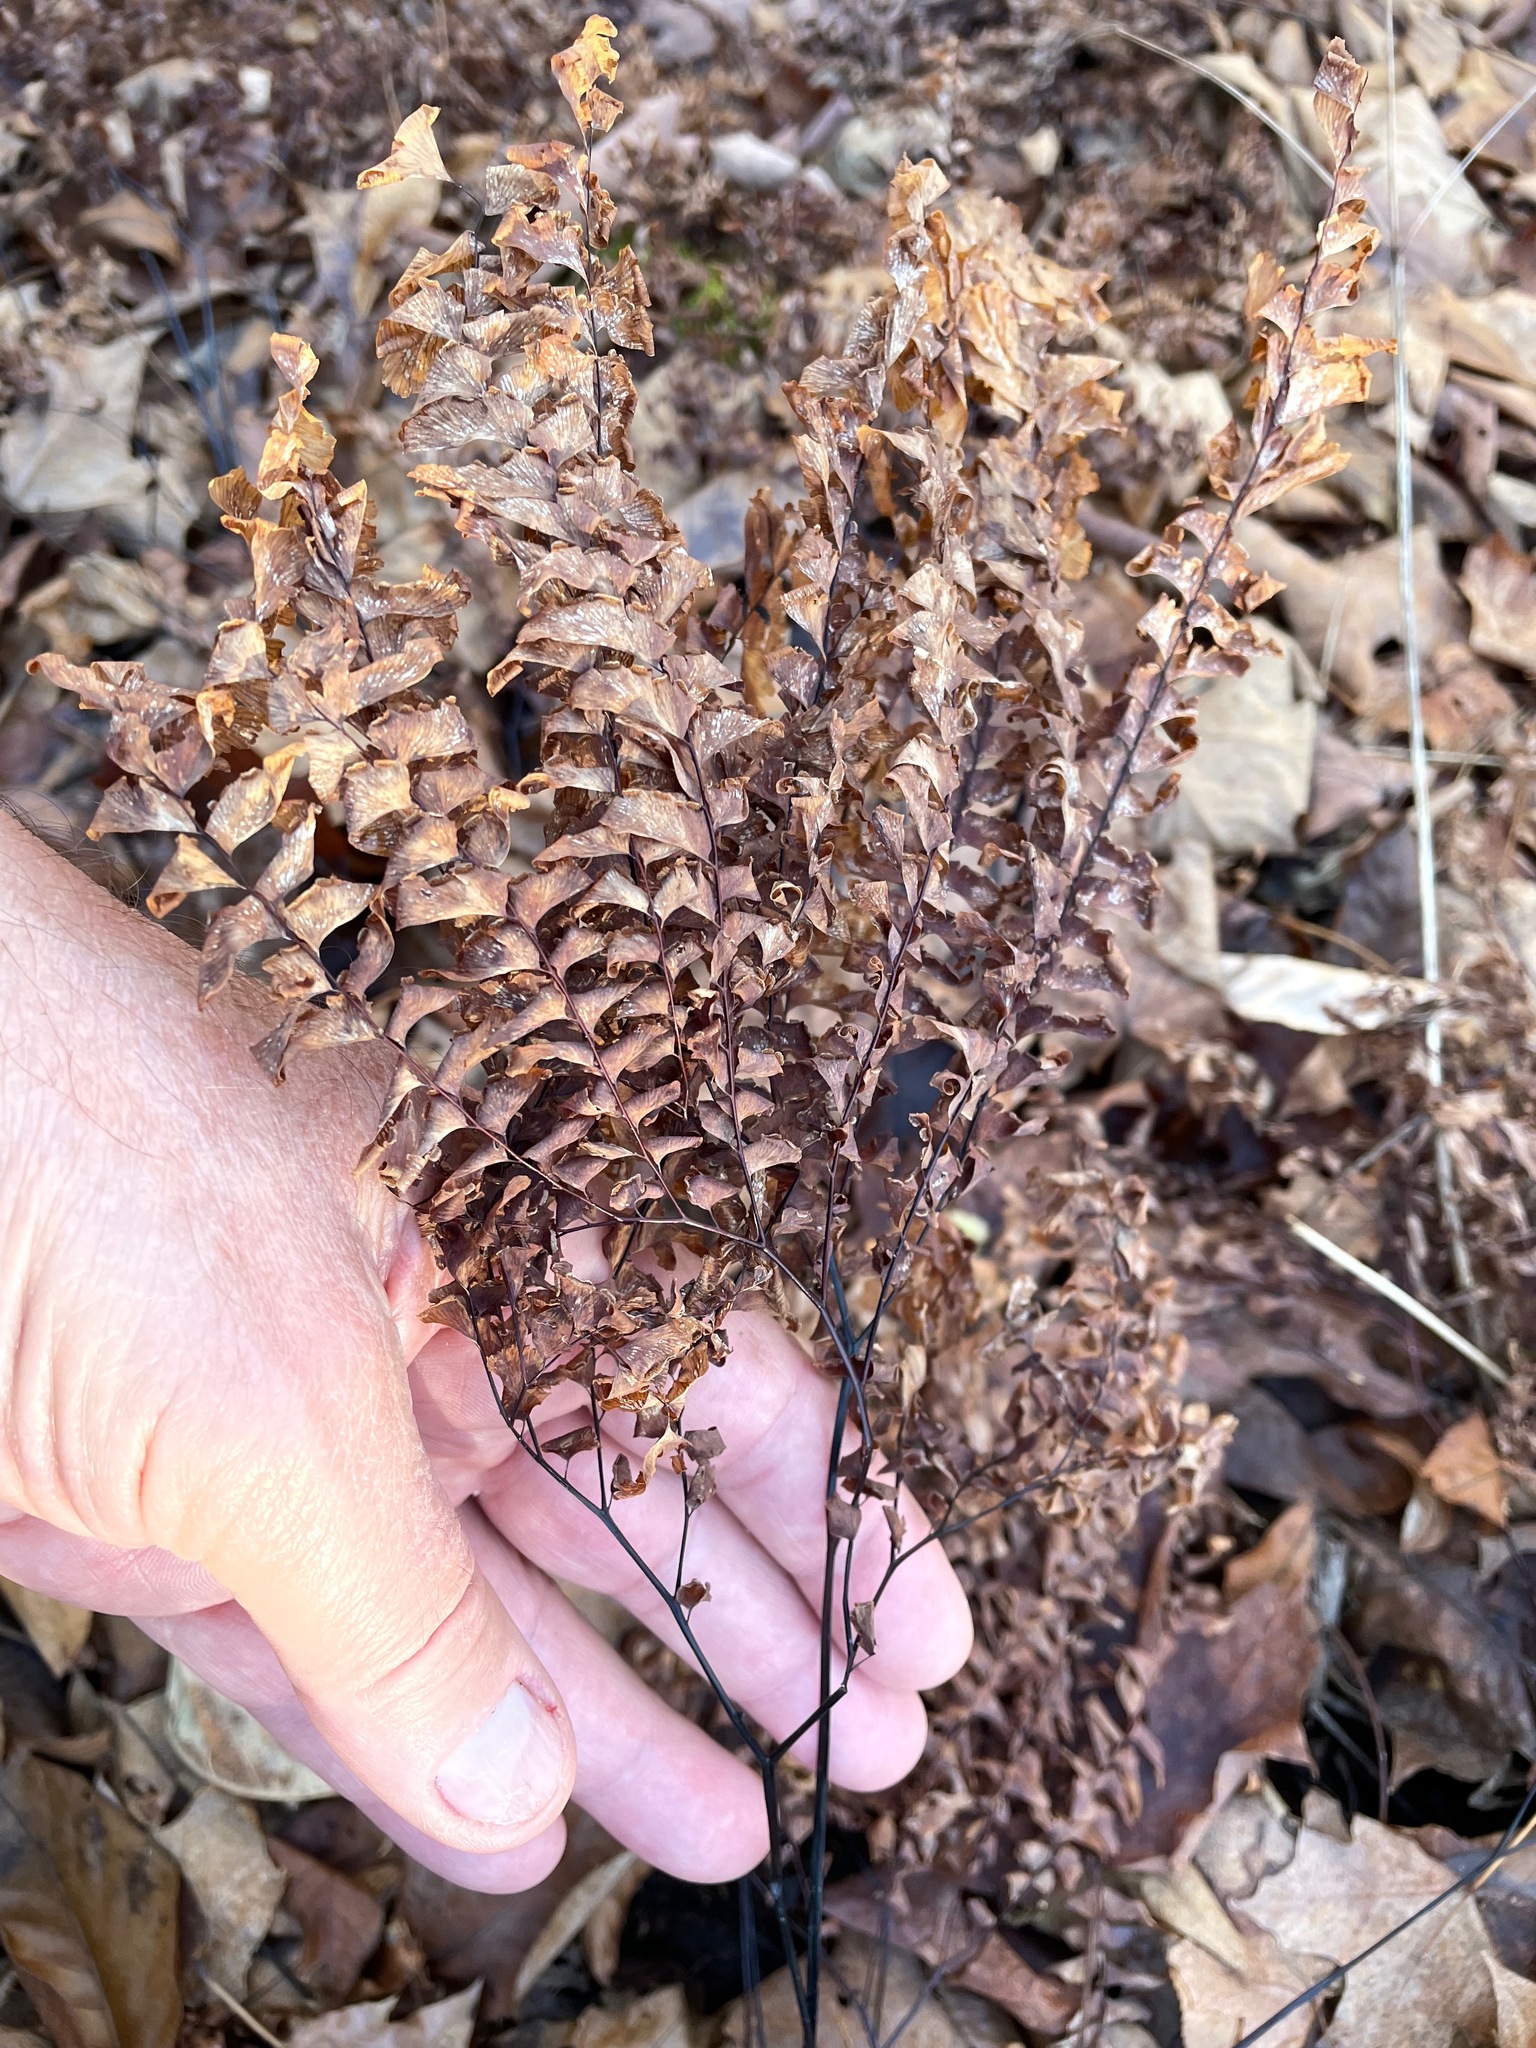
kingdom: Plantae
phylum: Tracheophyta
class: Polypodiopsida
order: Polypodiales
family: Pteridaceae
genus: Adiantum
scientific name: Adiantum pedatum
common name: Five-finger fern
